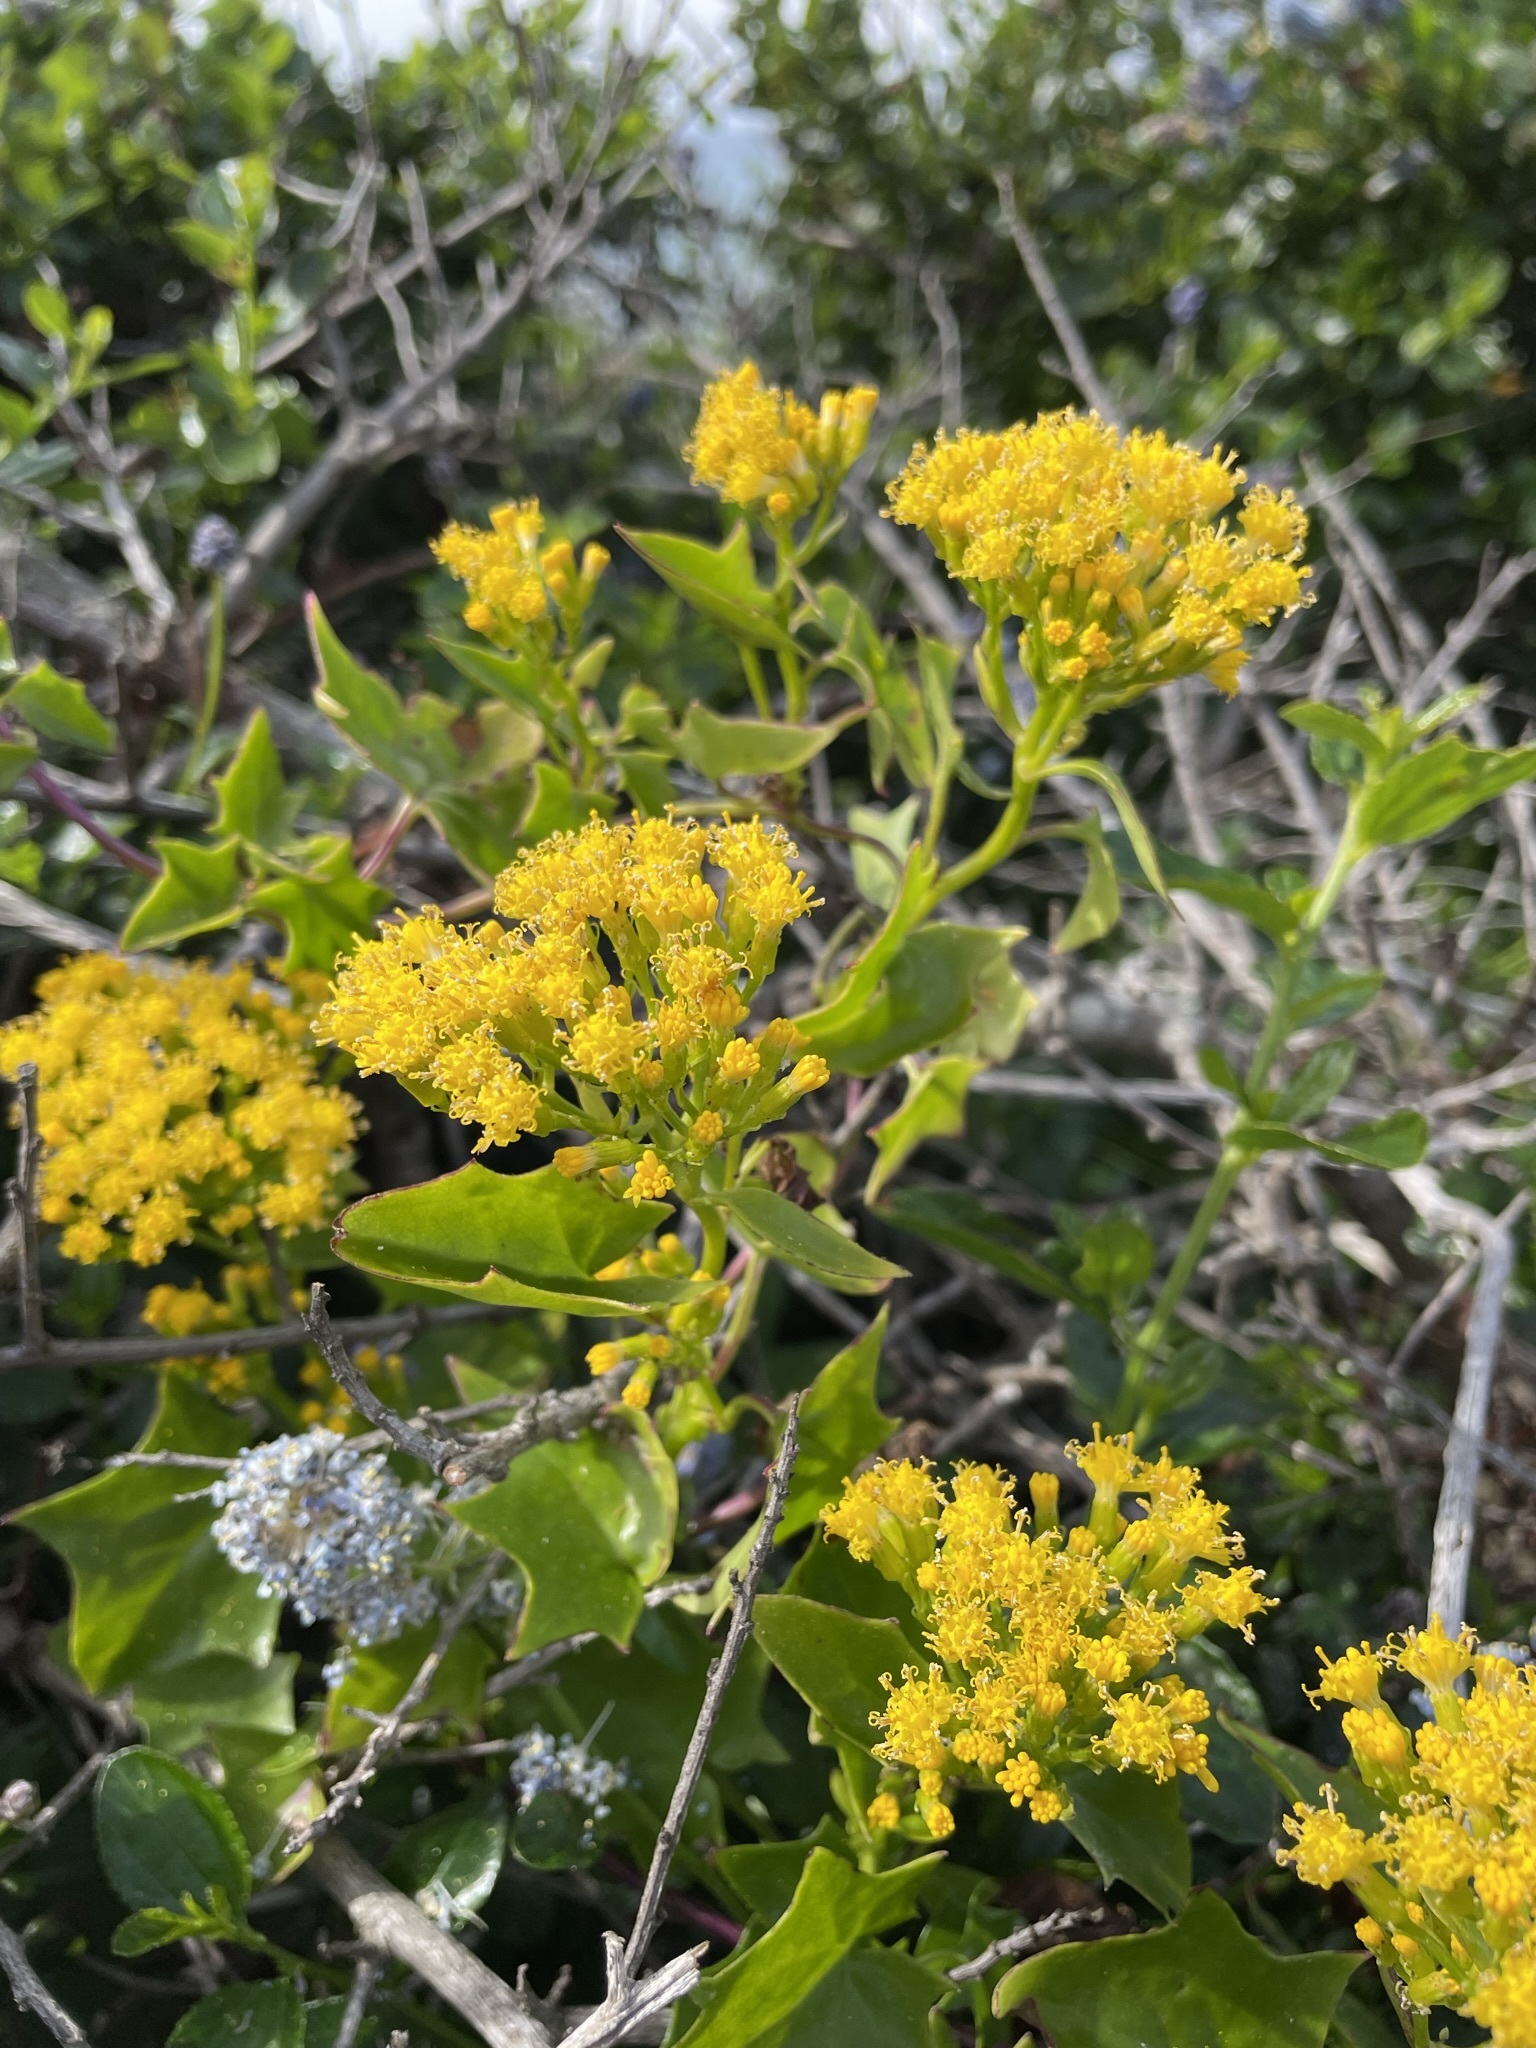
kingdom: Plantae
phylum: Tracheophyta
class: Magnoliopsida
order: Asterales
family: Asteraceae
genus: Delairea
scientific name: Delairea odorata
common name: Cape-ivy
